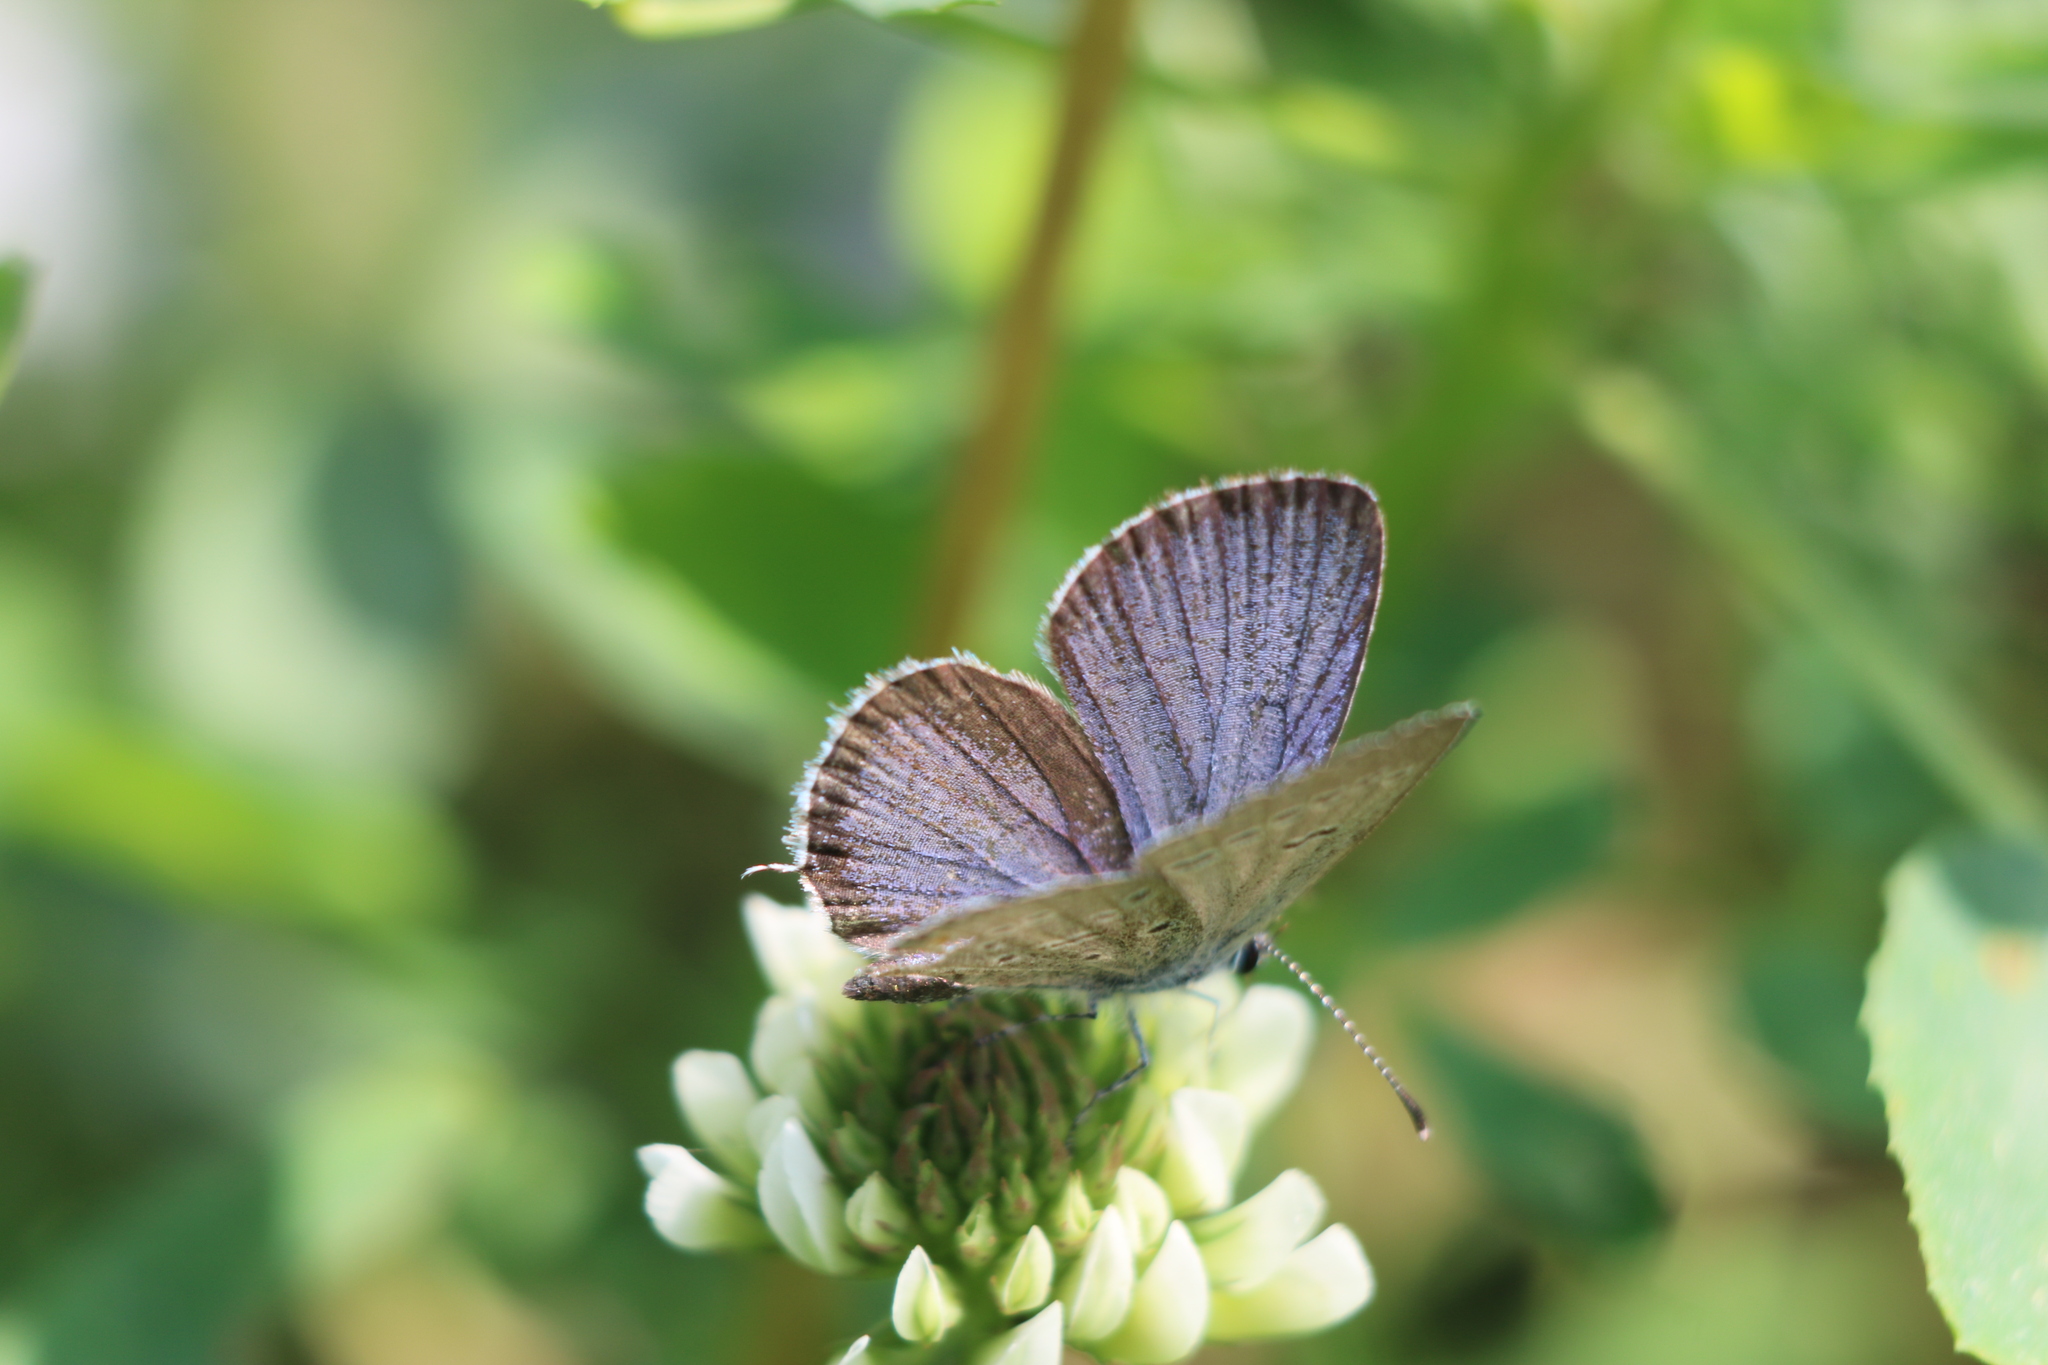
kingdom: Animalia
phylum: Arthropoda
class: Insecta
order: Lepidoptera
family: Lycaenidae
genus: Elkalyce
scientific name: Elkalyce comyntas
